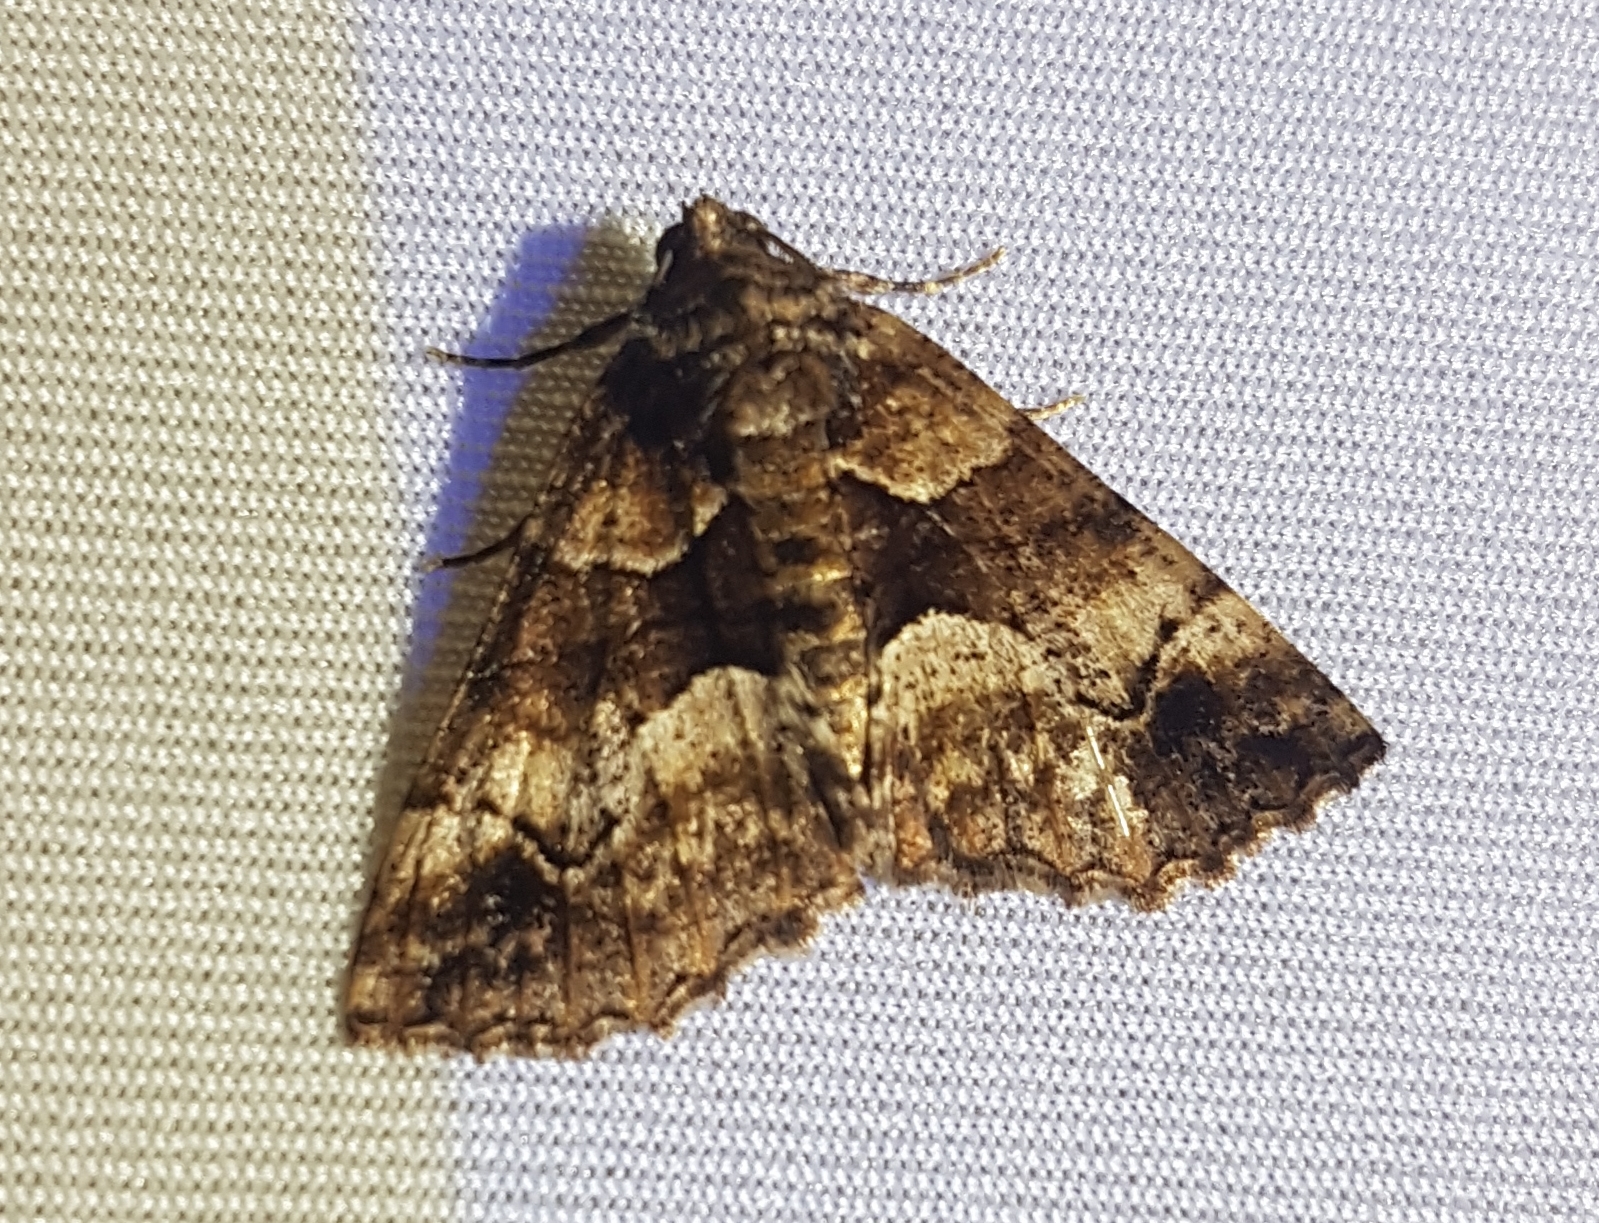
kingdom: Animalia
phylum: Arthropoda
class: Insecta
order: Lepidoptera
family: Geometridae
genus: Gastrina
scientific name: Gastrina cristaria
